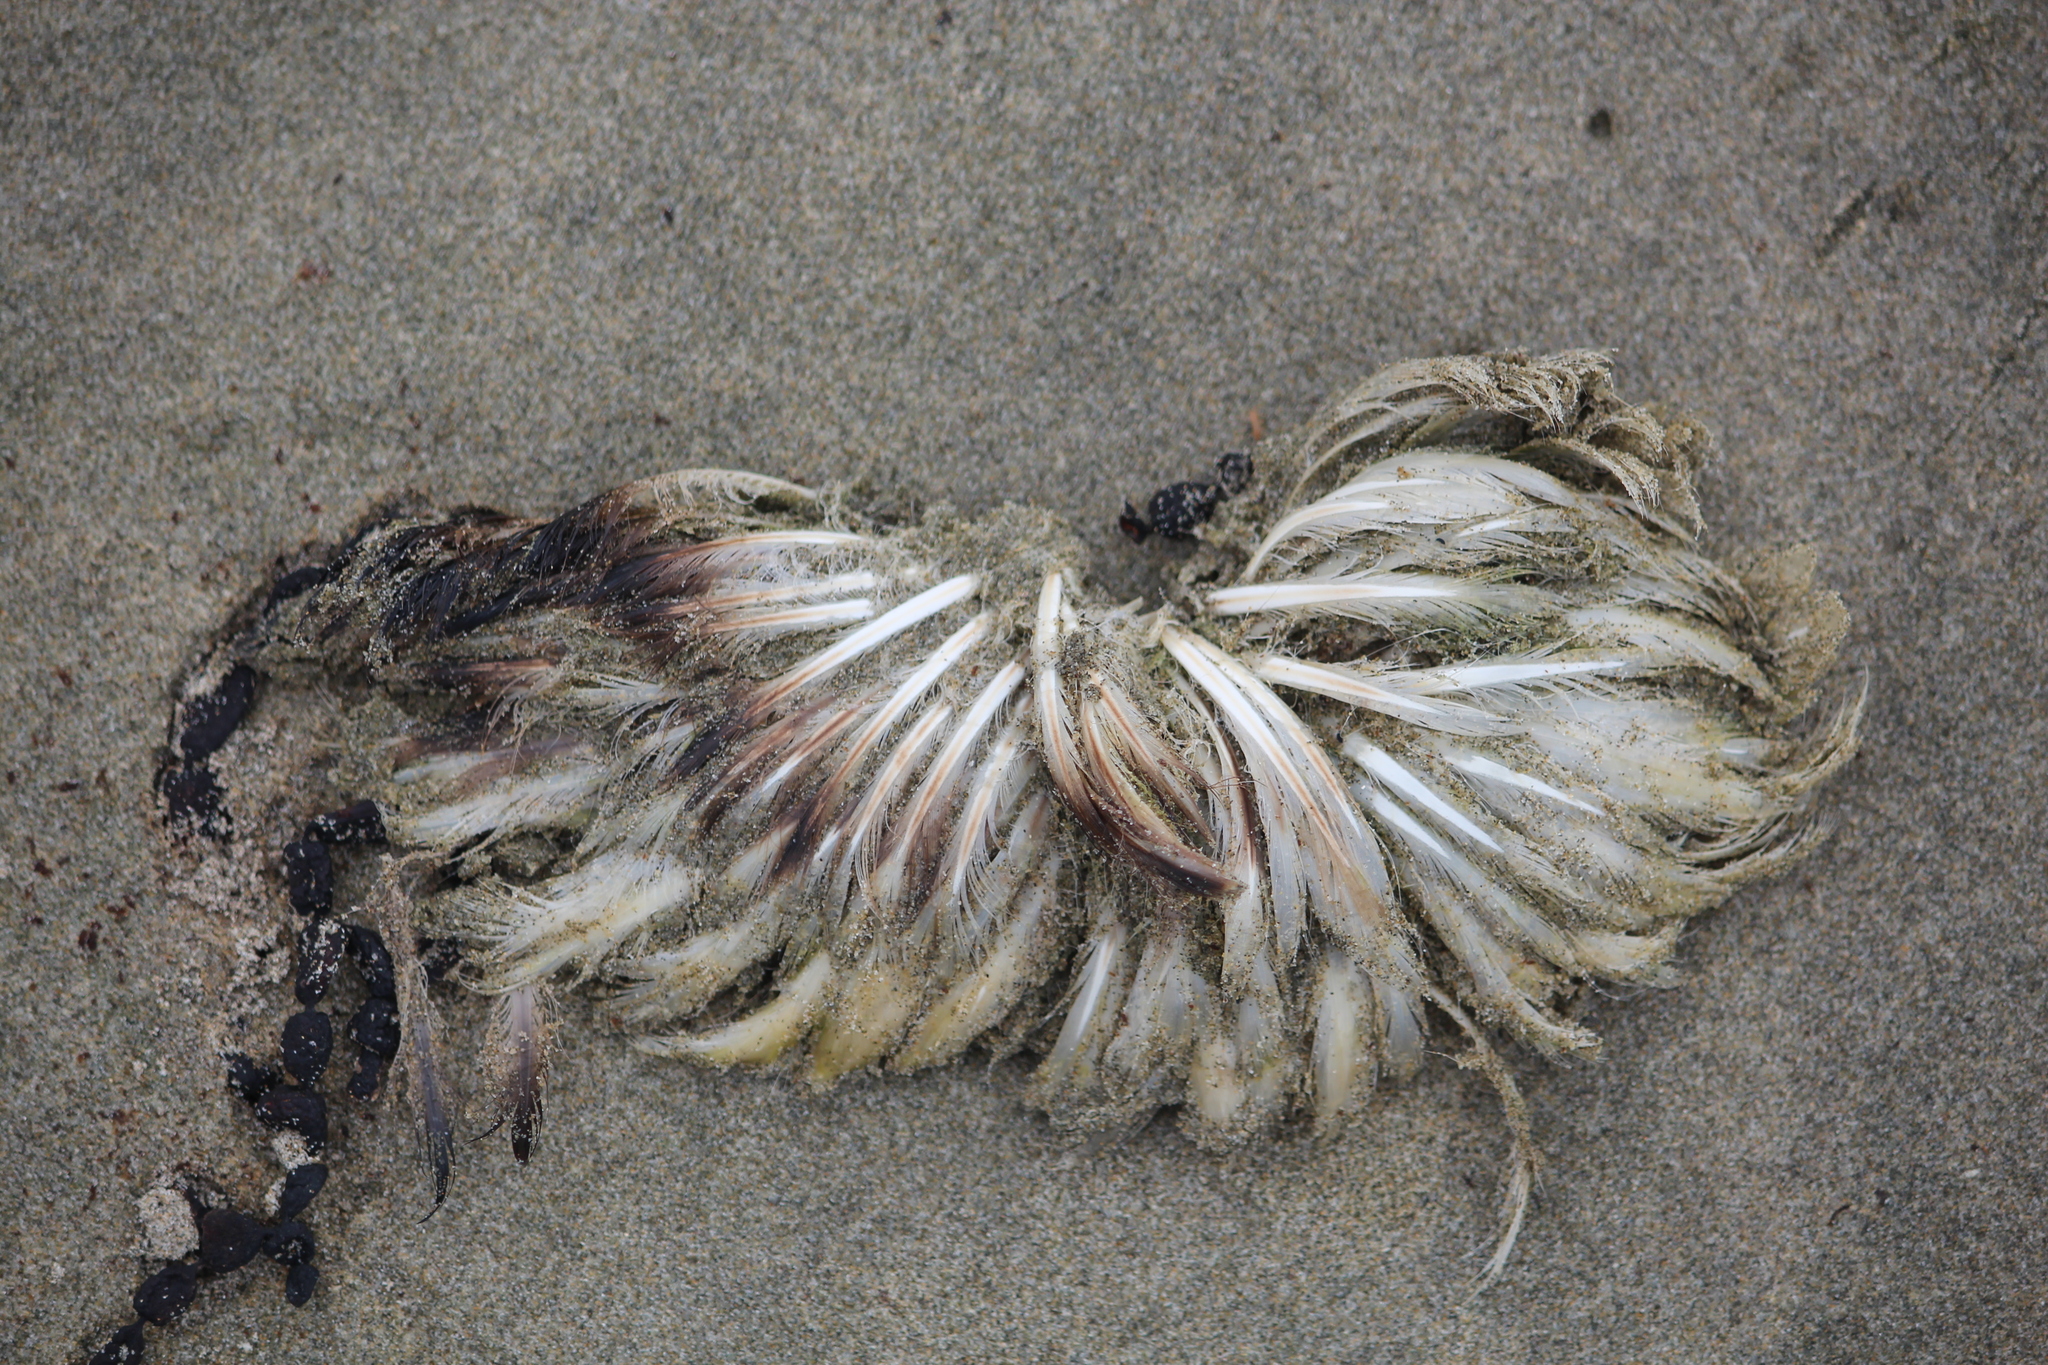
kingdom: Animalia
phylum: Chordata
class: Aves
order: Sphenisciformes
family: Spheniscidae
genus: Megadyptes
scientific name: Megadyptes antipodes
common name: Yellow-eyed penguin
